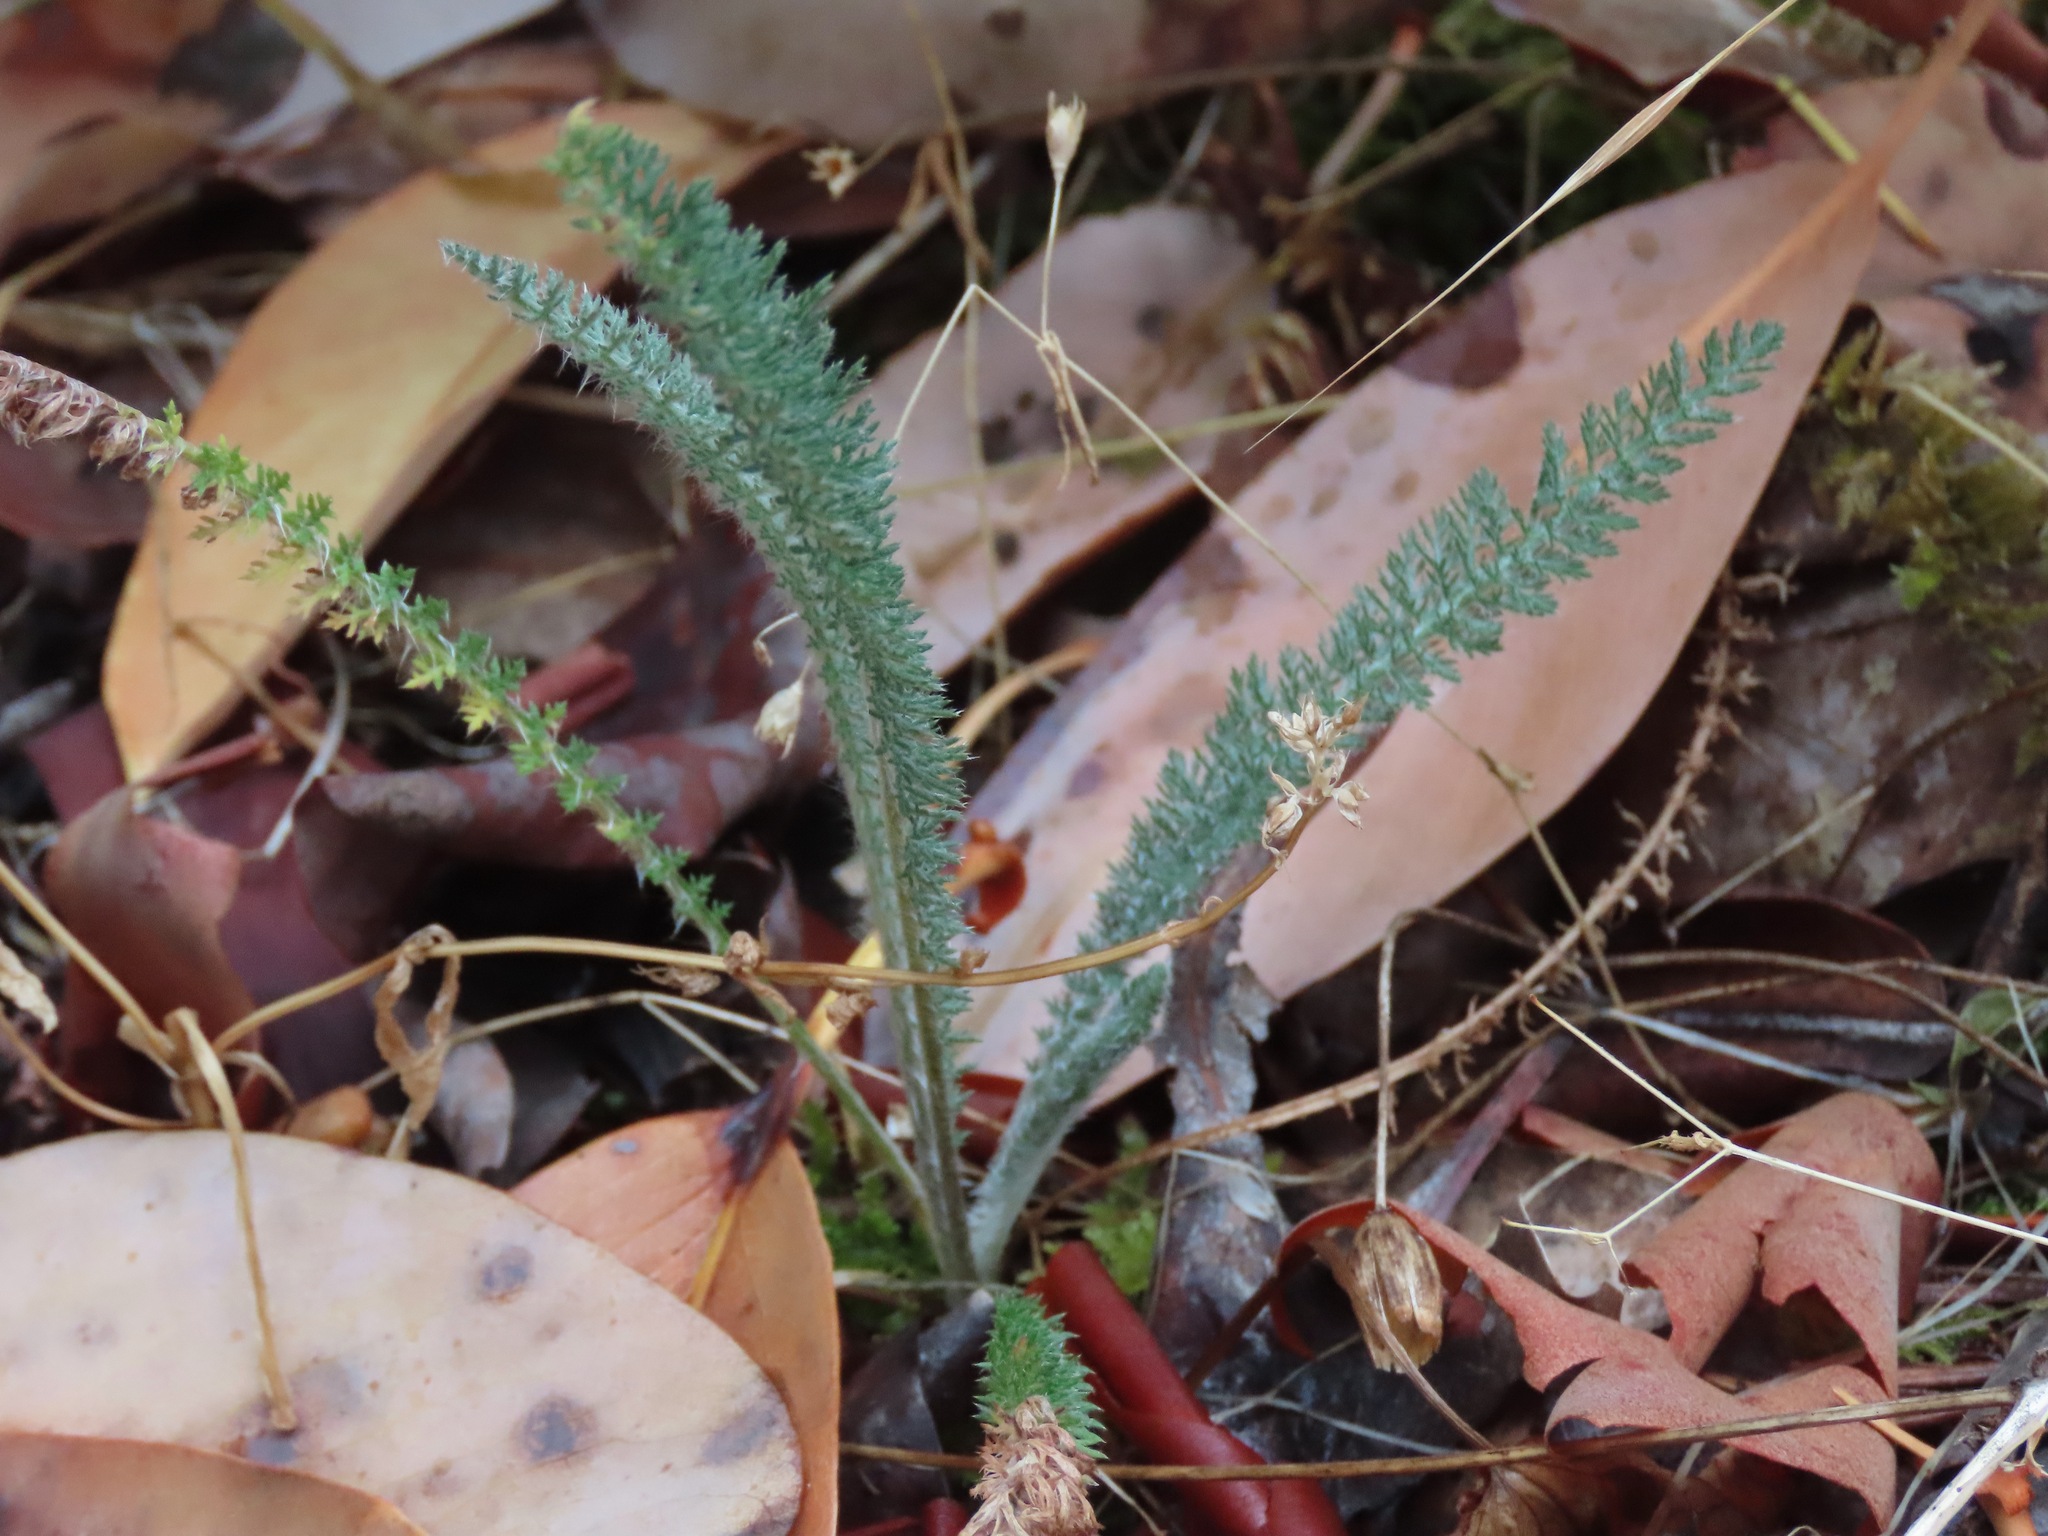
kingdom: Plantae
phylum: Tracheophyta
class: Magnoliopsida
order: Asterales
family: Asteraceae
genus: Achillea
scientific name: Achillea millefolium
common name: Yarrow
